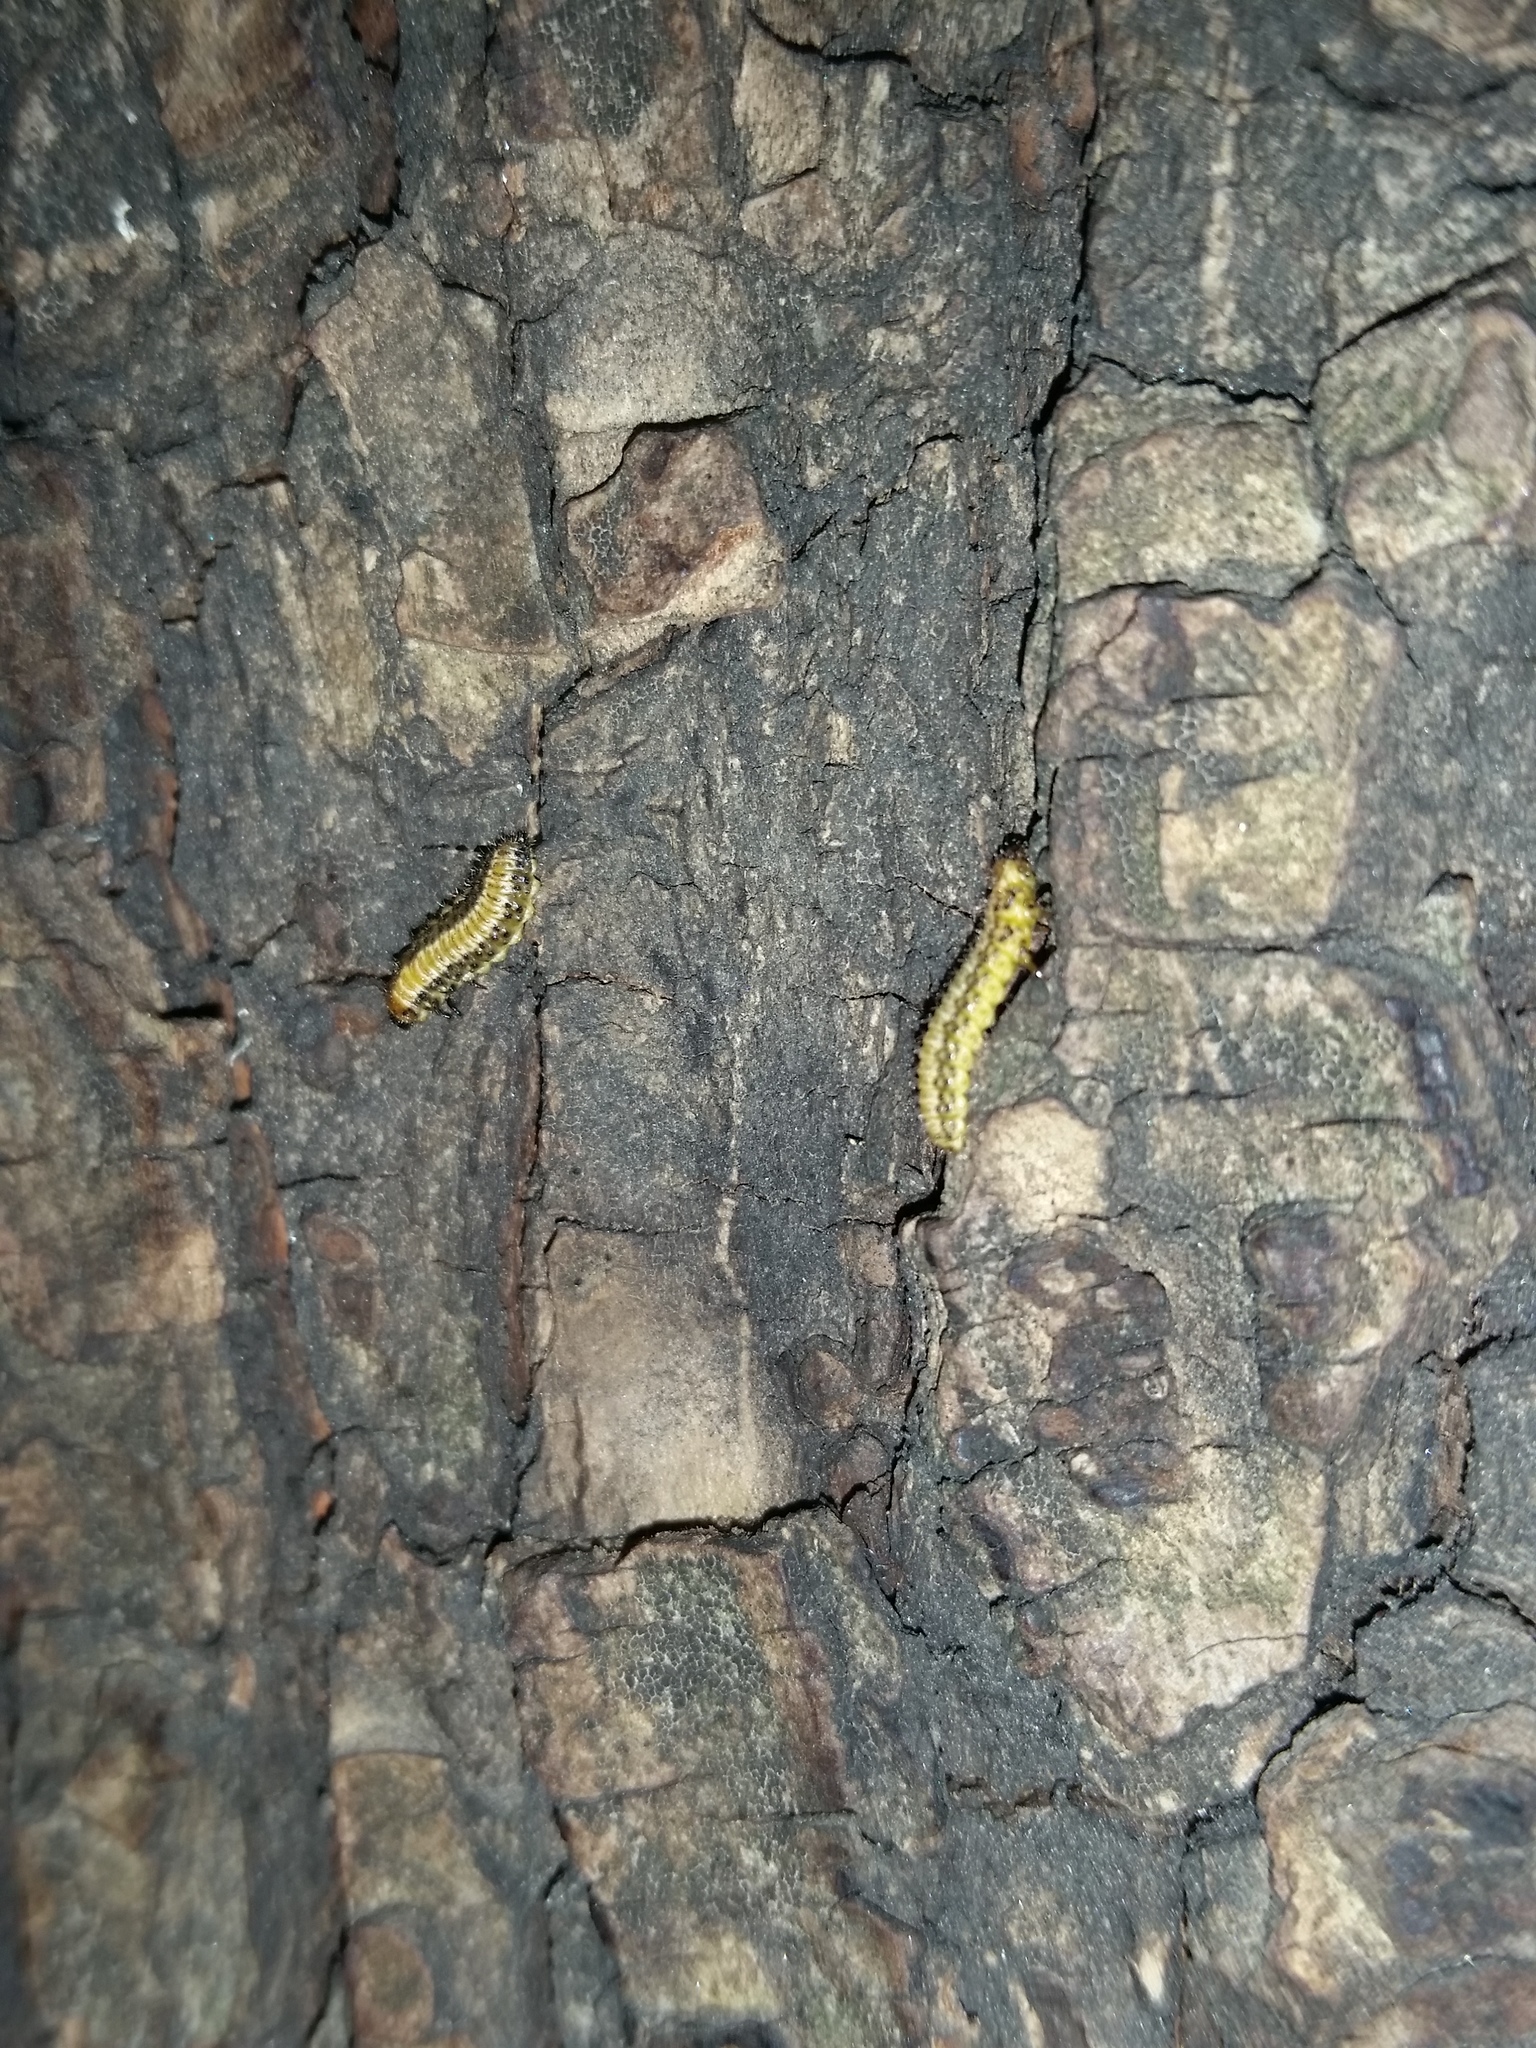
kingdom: Animalia
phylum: Arthropoda
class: Insecta
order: Coleoptera
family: Chrysomelidae
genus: Xanthogaleruca
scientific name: Xanthogaleruca luteola
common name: Elm leaf beetle
